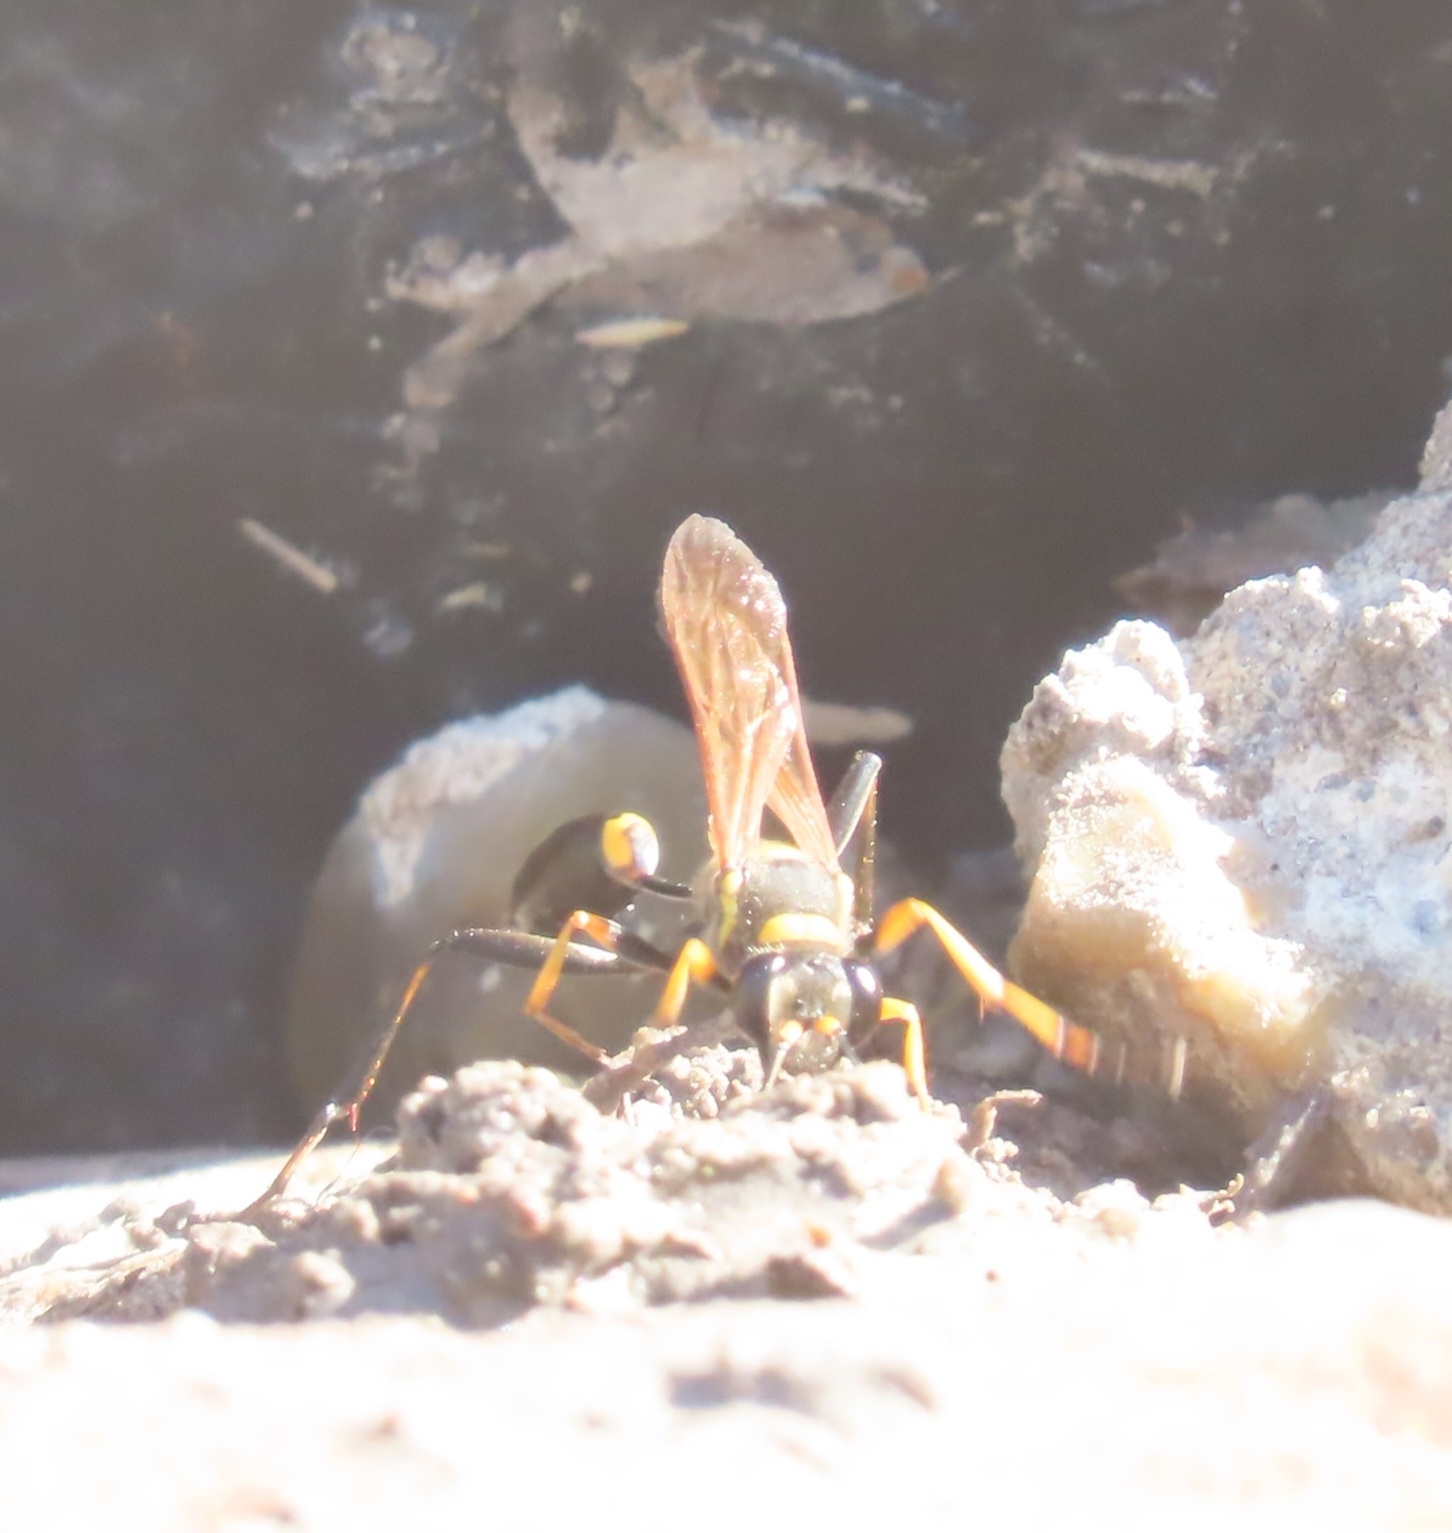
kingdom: Animalia
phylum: Arthropoda
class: Insecta
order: Hymenoptera
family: Sphecidae
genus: Sceliphron
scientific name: Sceliphron assimile
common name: Clayman's mud dauber
